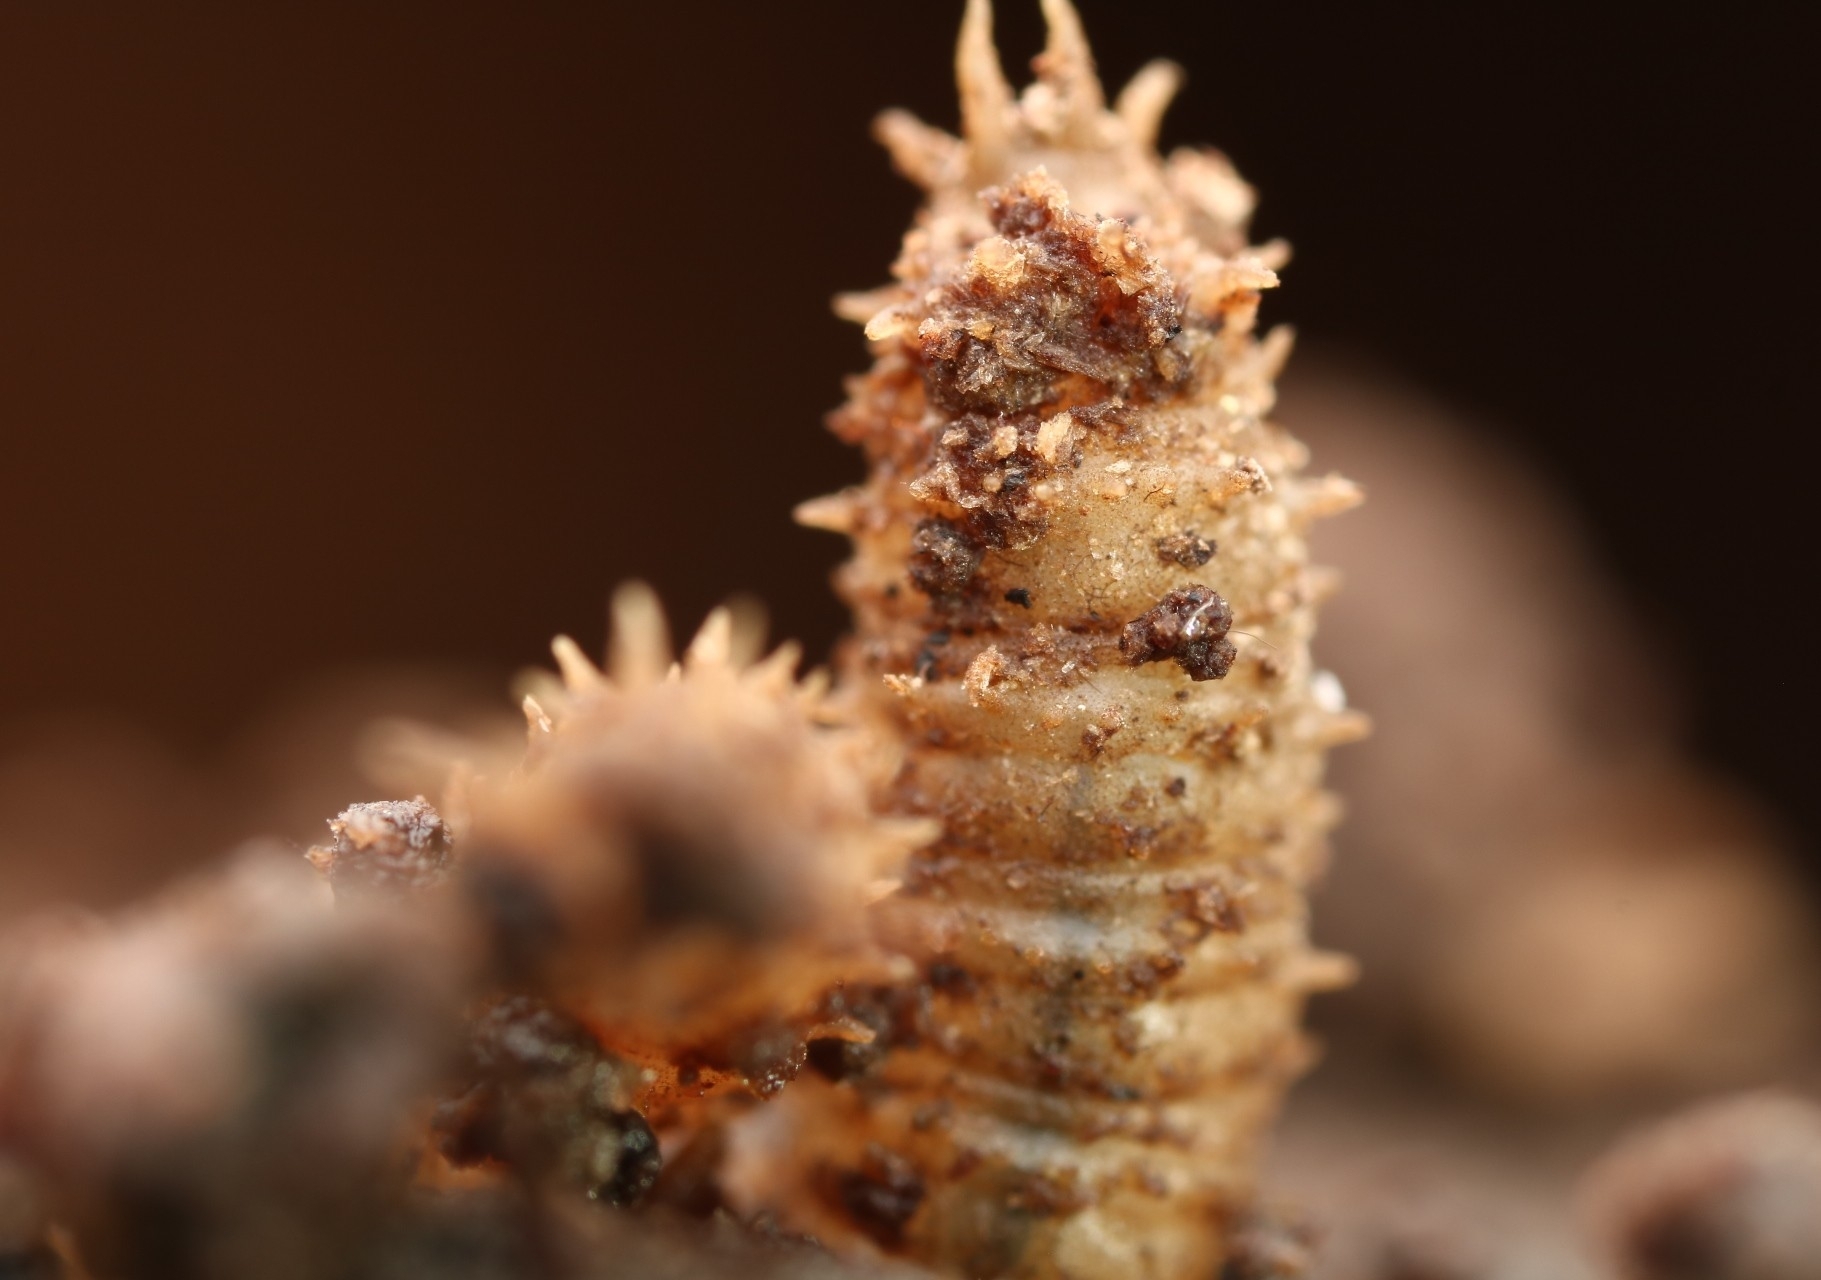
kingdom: Animalia
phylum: Arthropoda
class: Insecta
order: Diptera
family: Bibionidae
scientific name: Bibionidae
